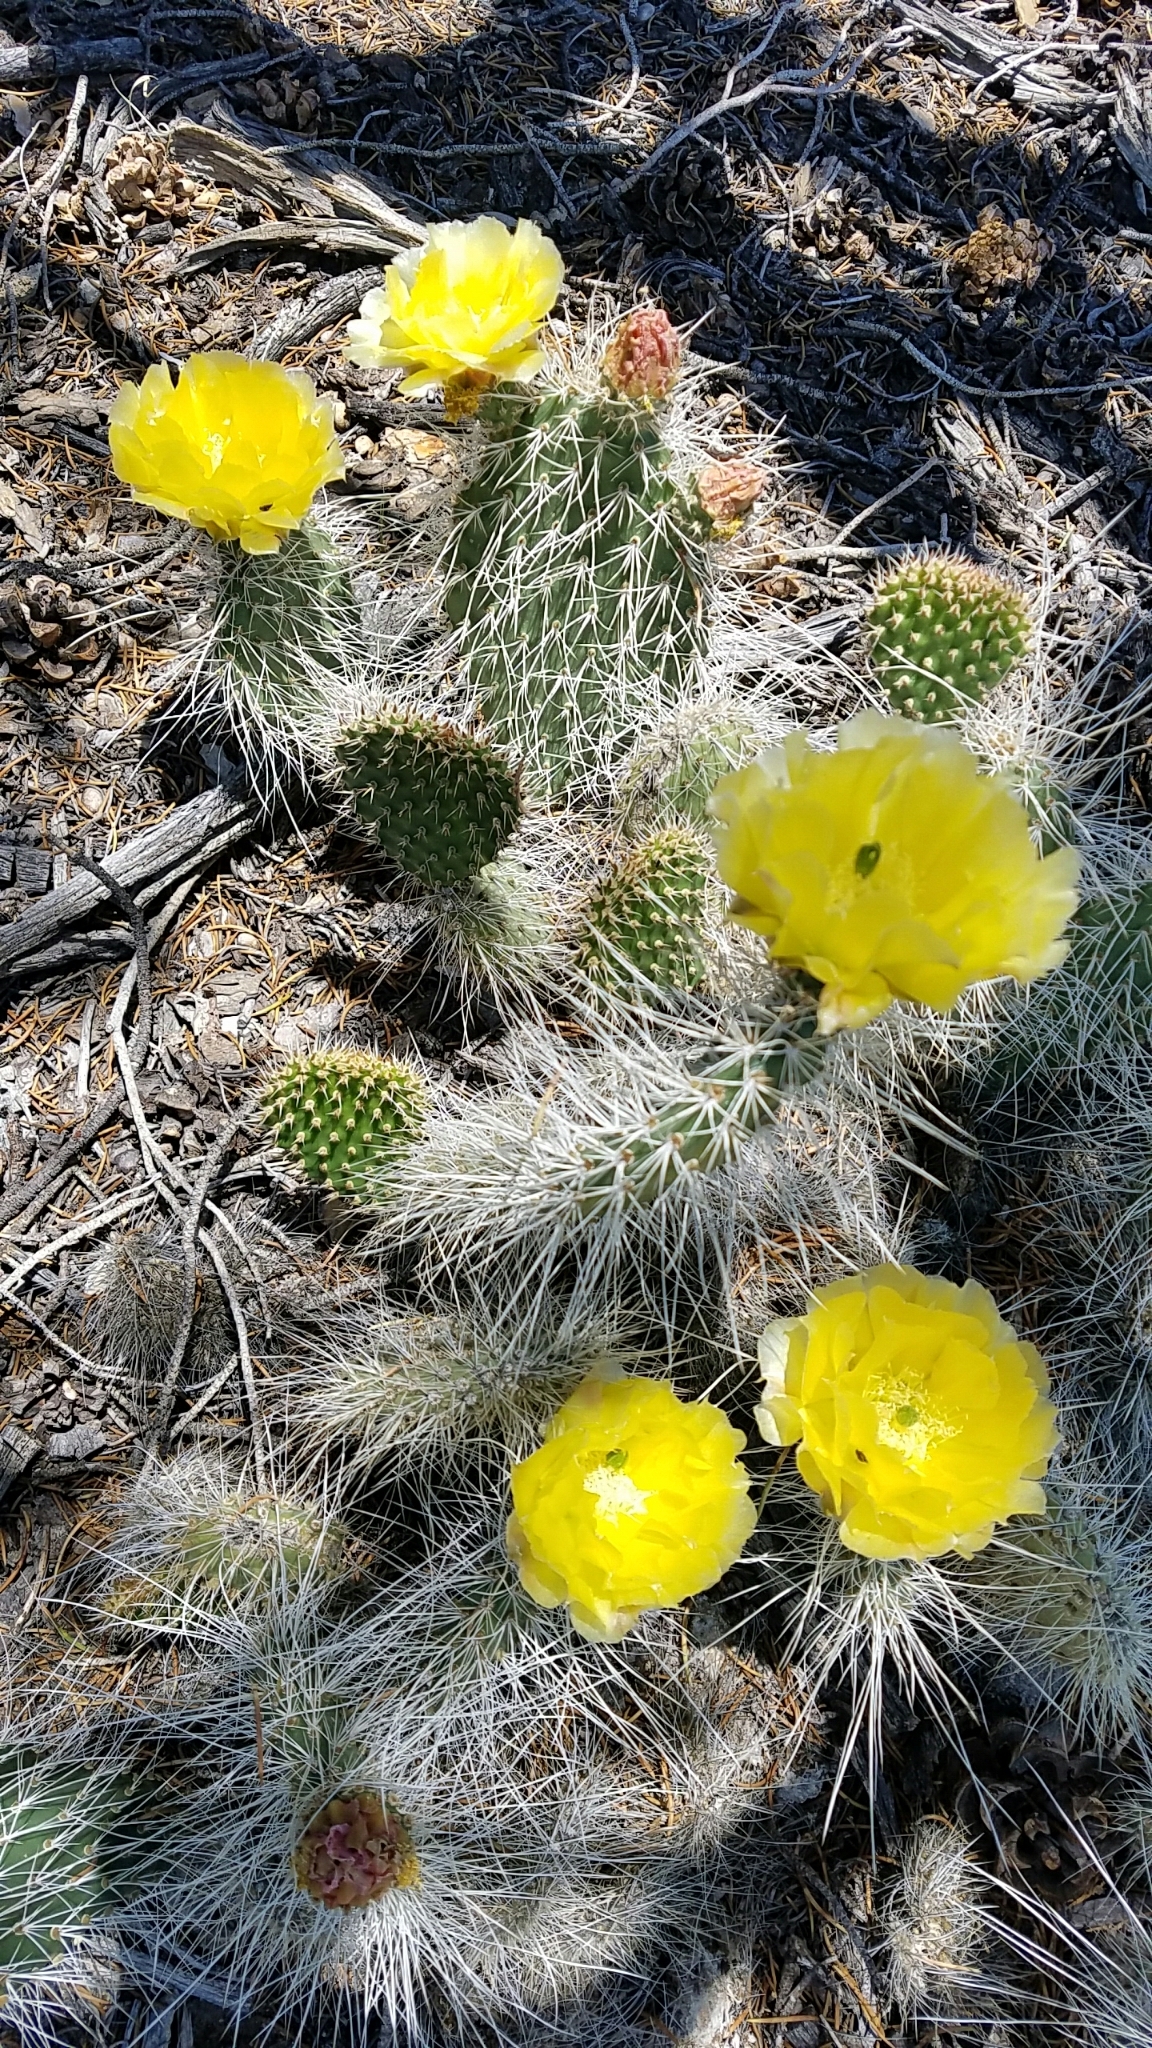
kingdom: Plantae
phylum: Tracheophyta
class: Magnoliopsida
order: Caryophyllales
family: Cactaceae
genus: Opuntia
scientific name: Opuntia polyacantha
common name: Plains prickly-pear
